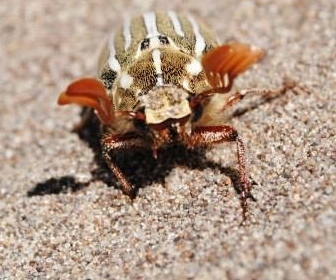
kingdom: Animalia
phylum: Arthropoda
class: Insecta
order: Coleoptera
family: Scarabaeidae
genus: Polyphylla
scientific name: Polyphylla decemlineata
